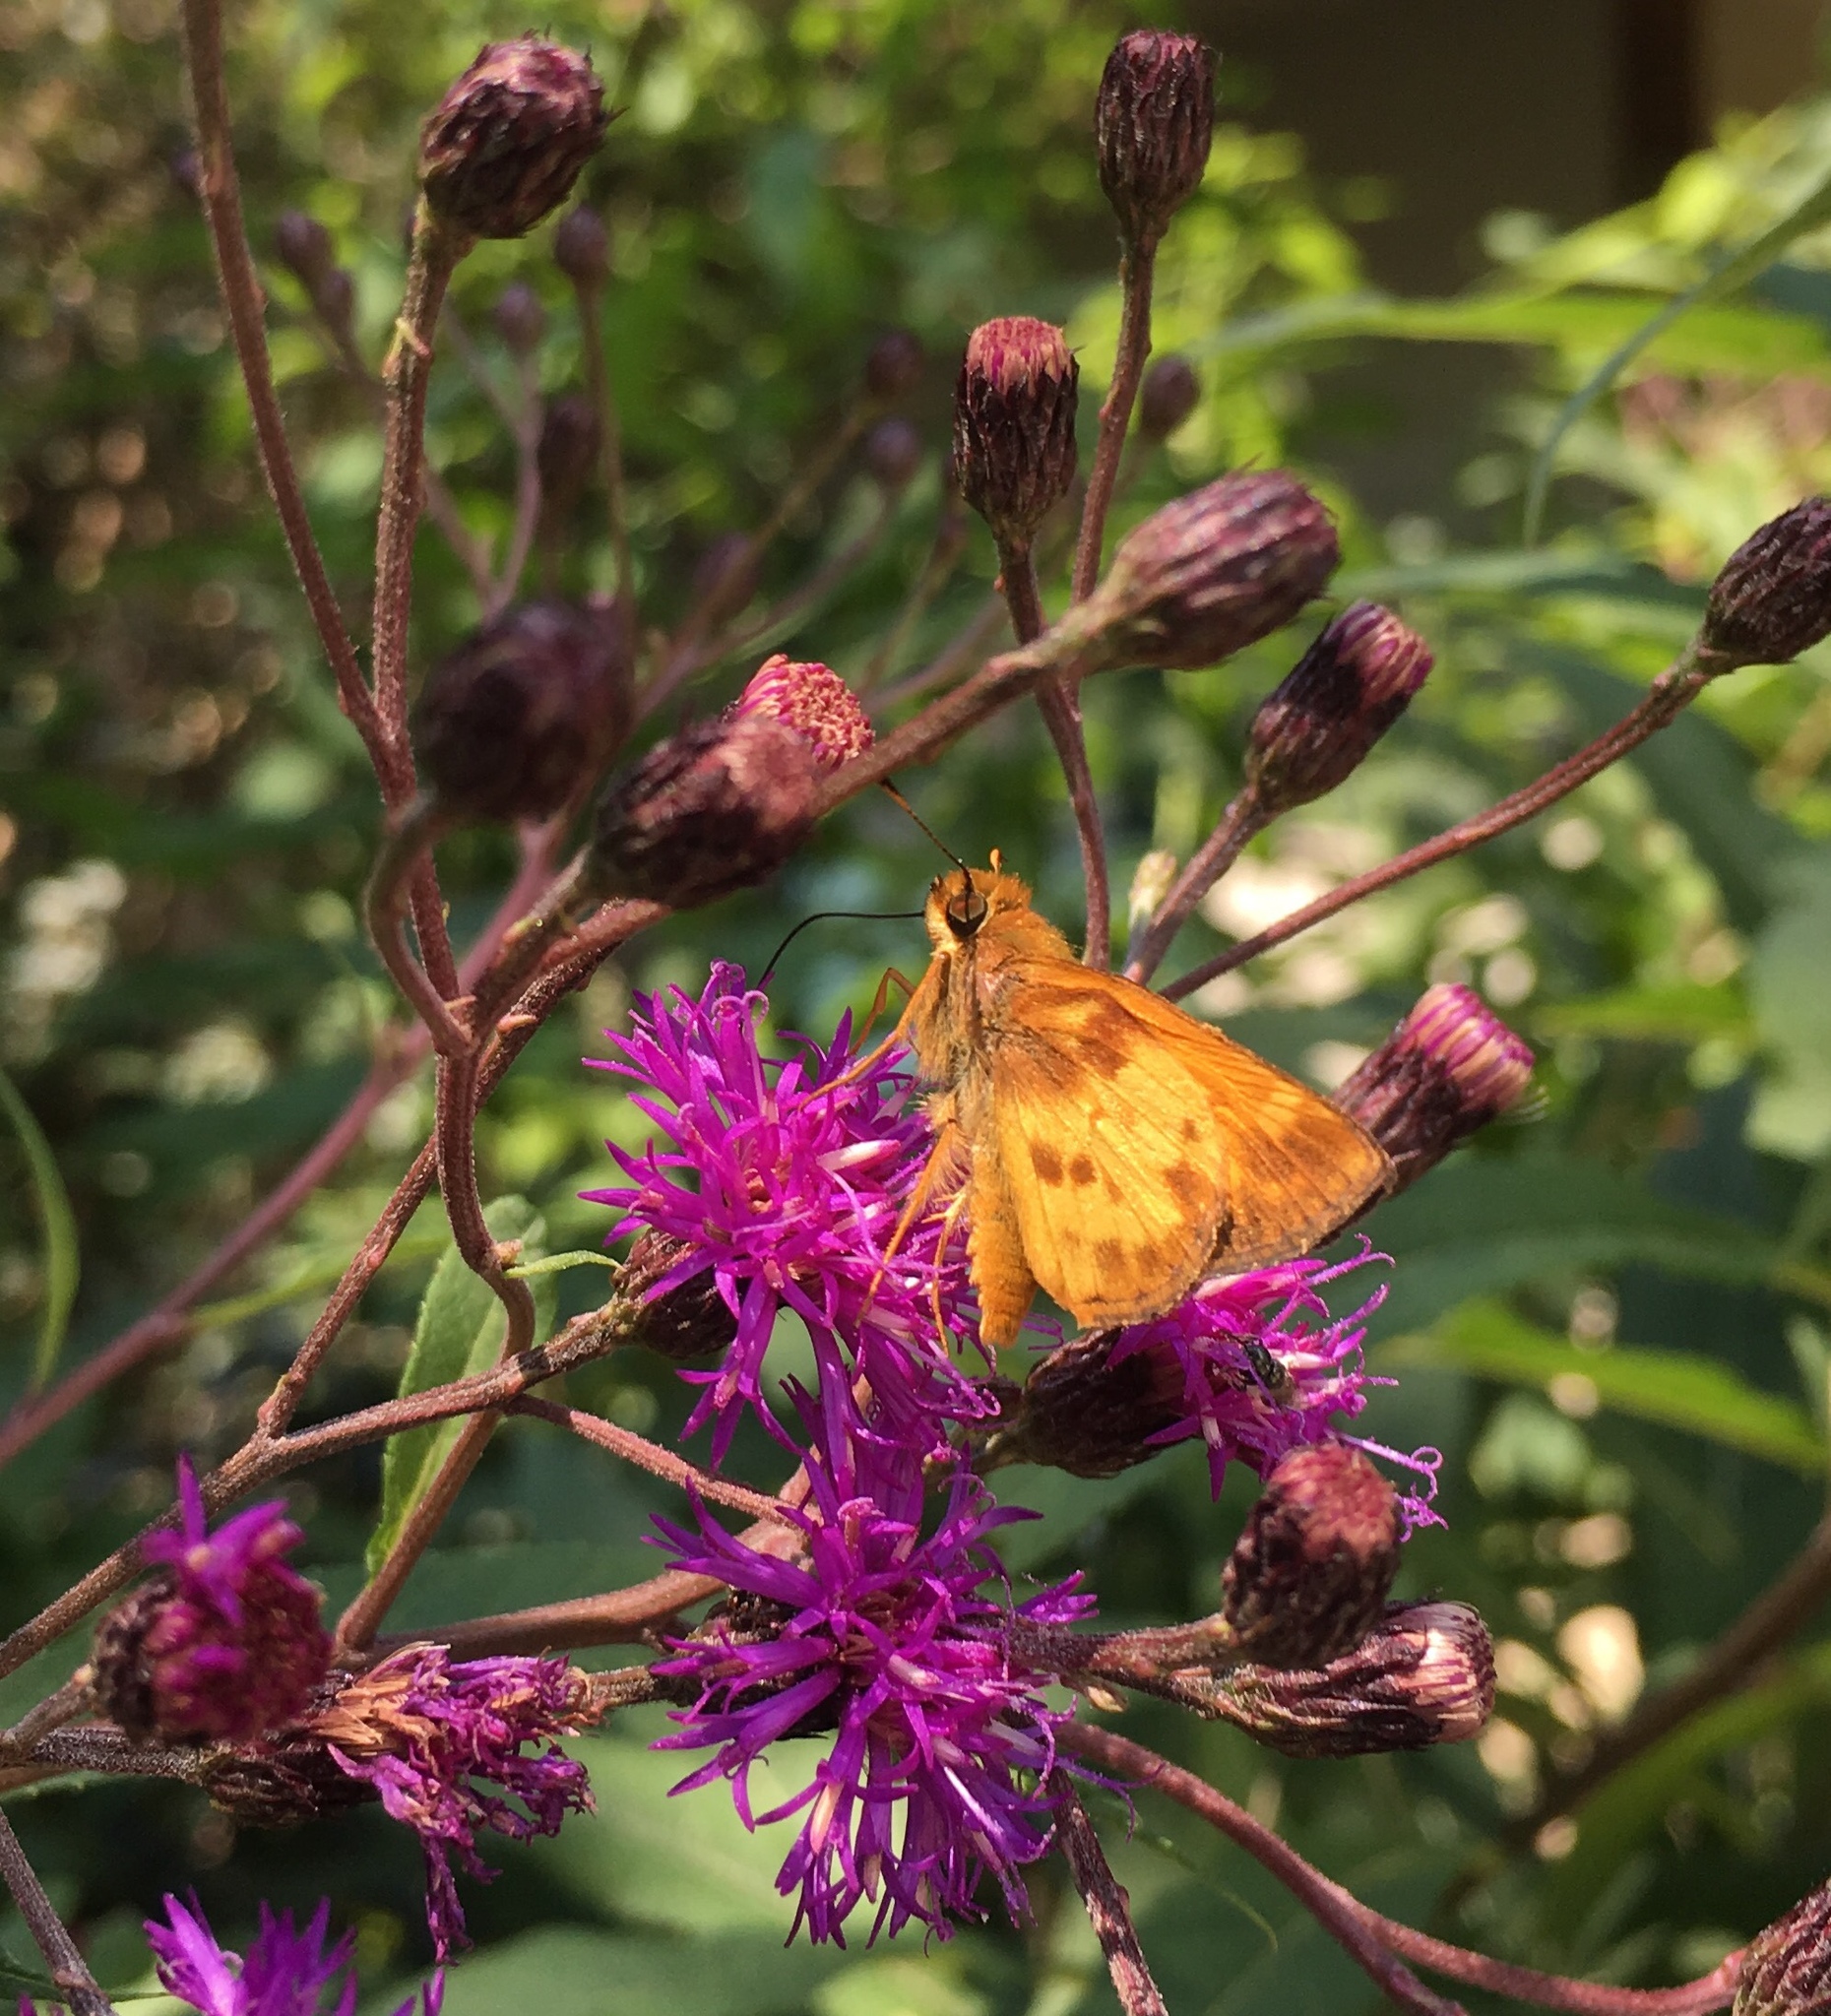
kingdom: Animalia
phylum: Arthropoda
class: Insecta
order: Lepidoptera
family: Hesperiidae
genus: Lon
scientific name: Lon zabulon
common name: Zabulon skipper
